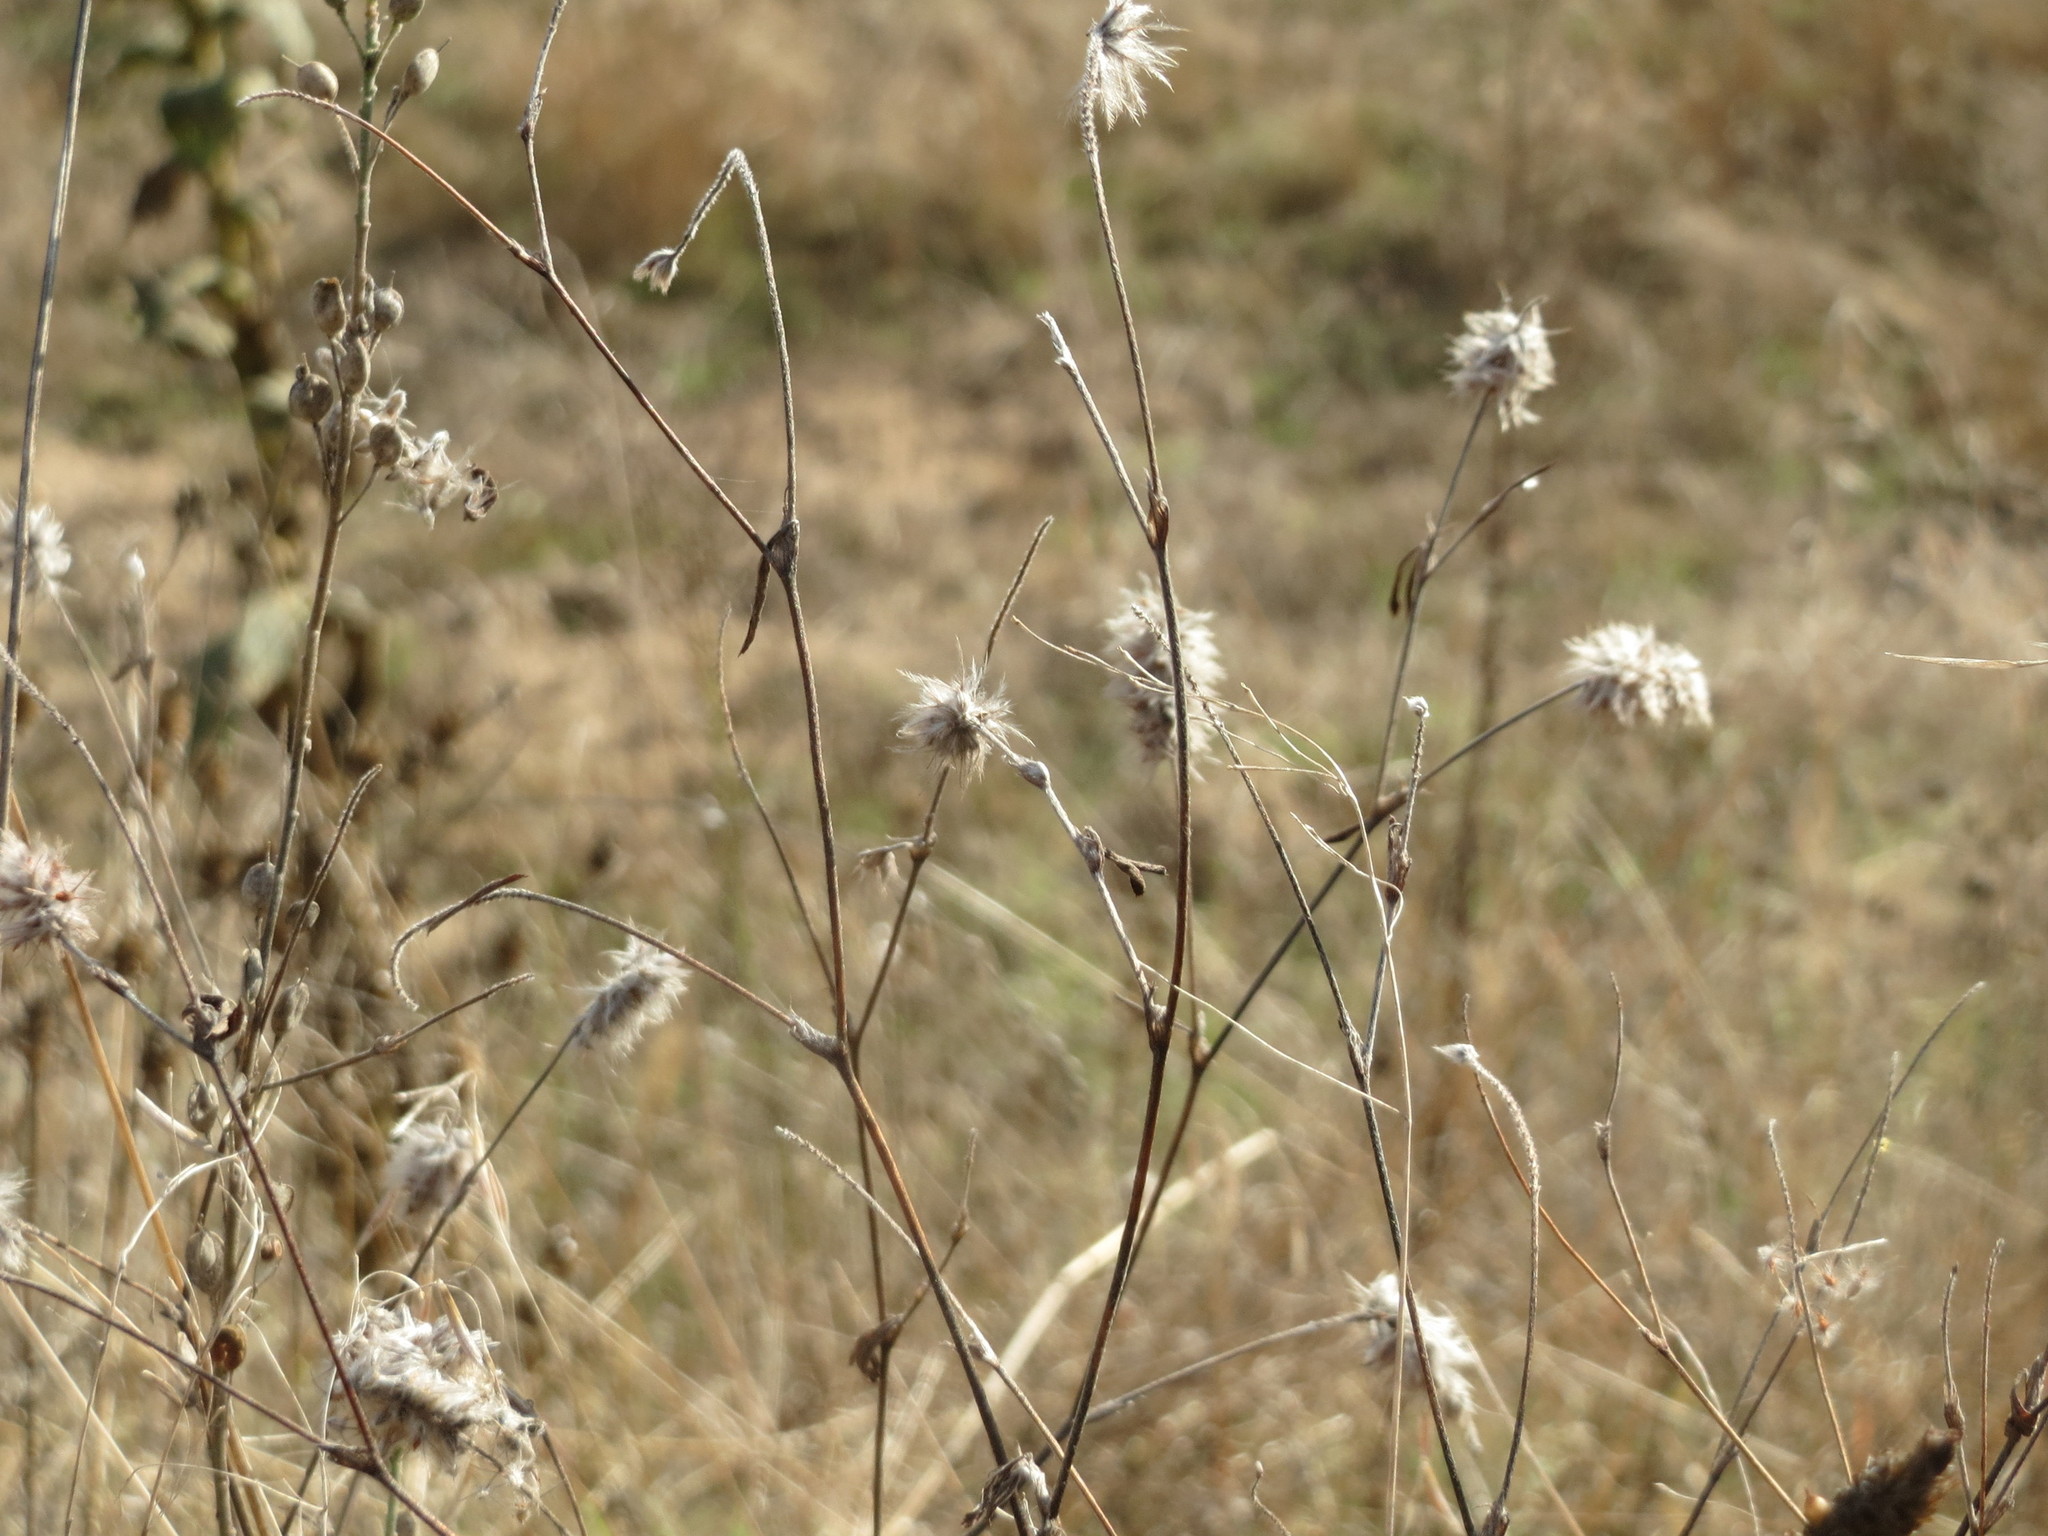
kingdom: Plantae
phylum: Tracheophyta
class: Magnoliopsida
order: Fabales
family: Fabaceae
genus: Trifolium
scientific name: Trifolium arvense
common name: Hare's-foot clover
